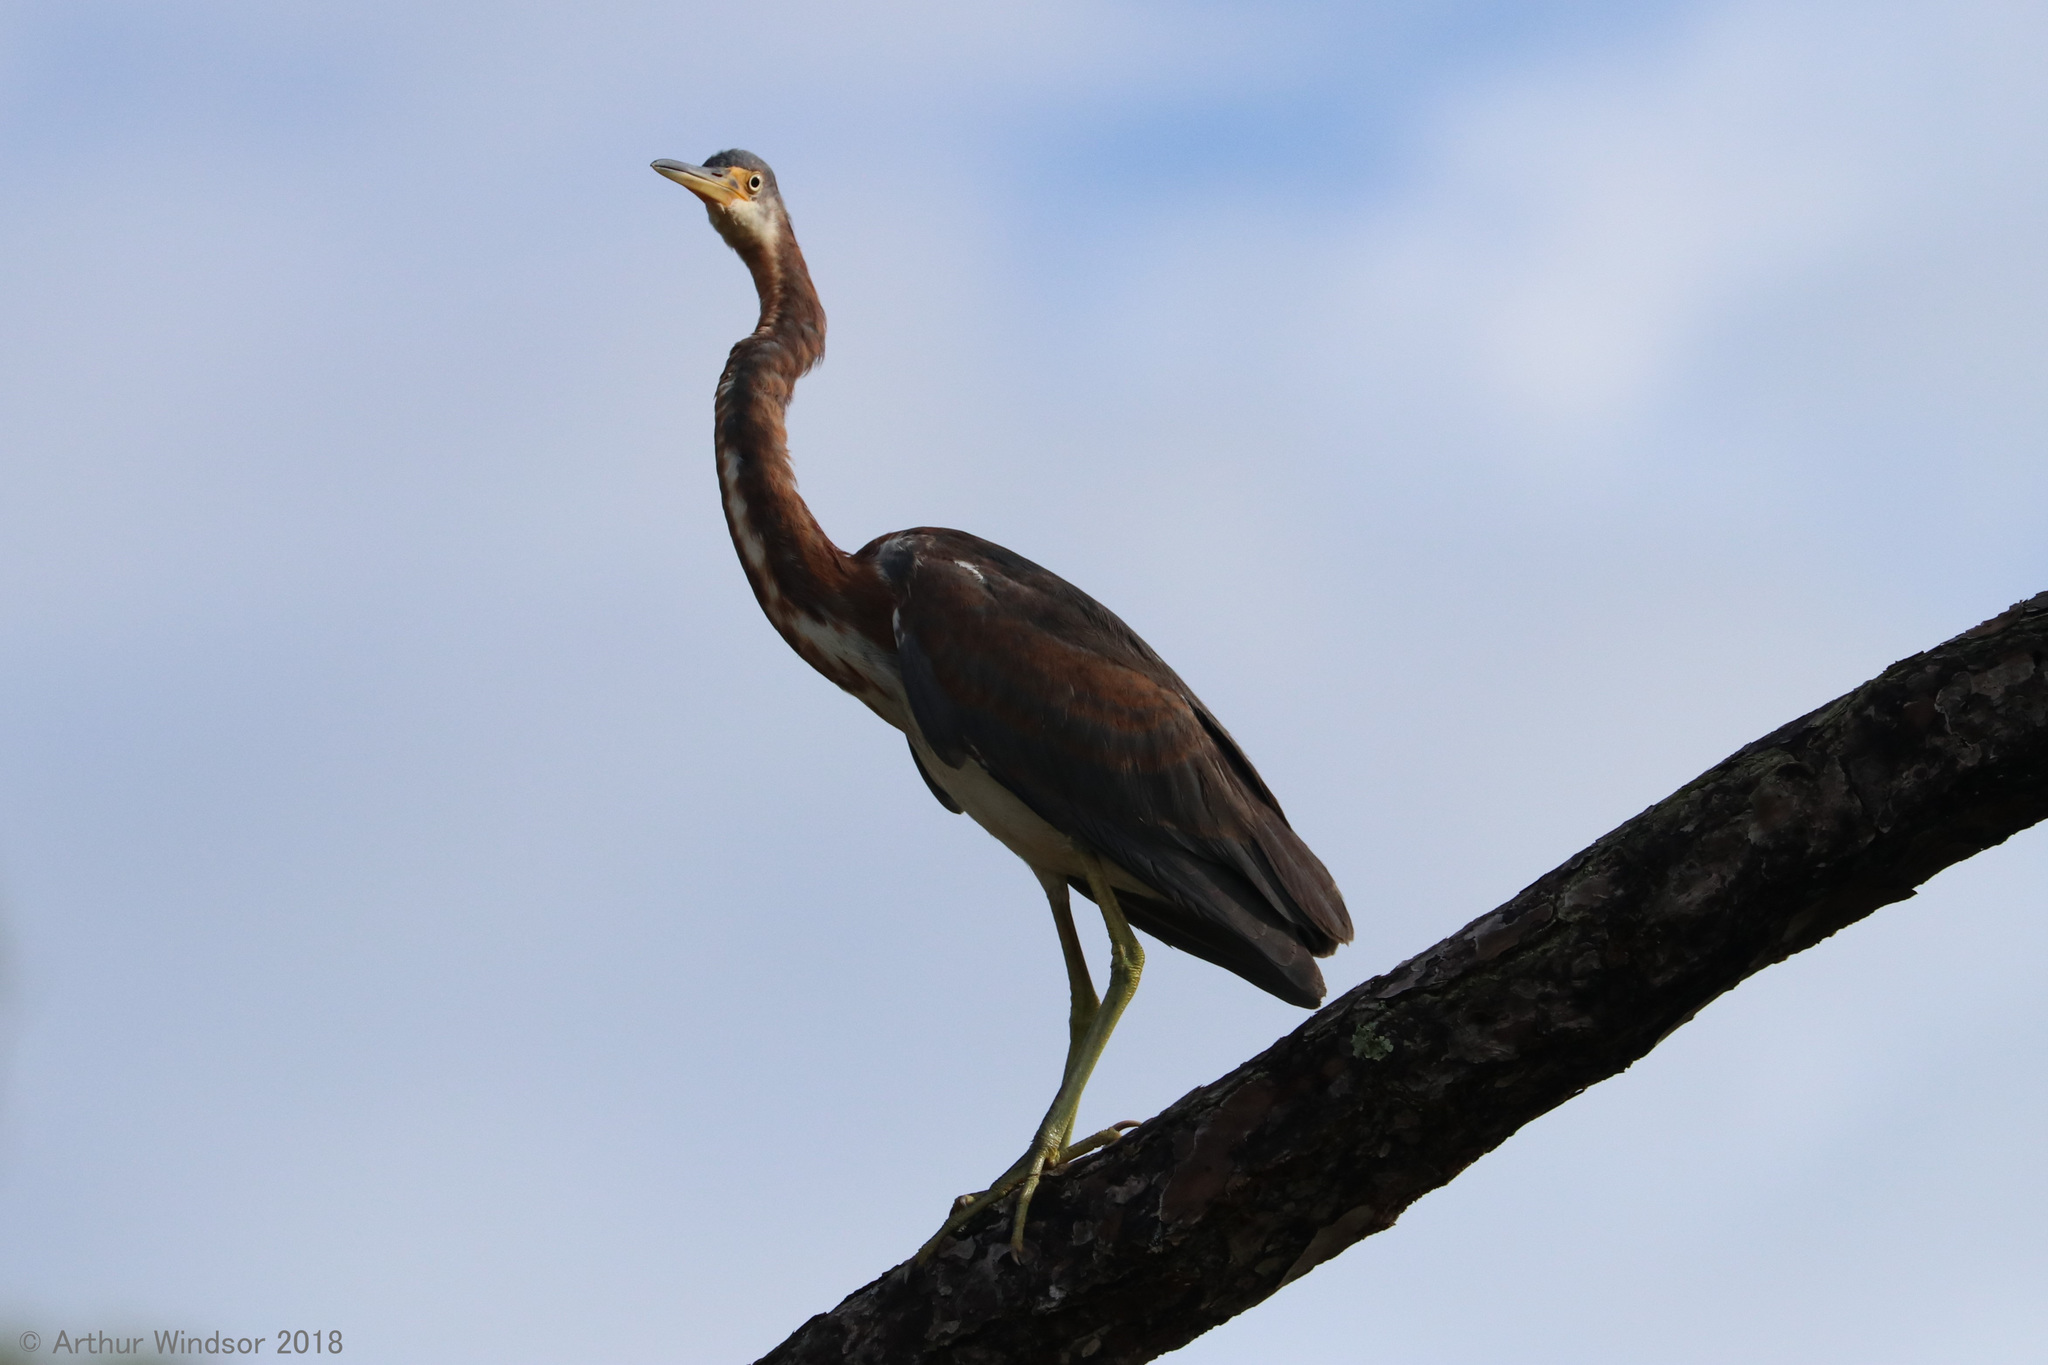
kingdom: Animalia
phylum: Chordata
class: Aves
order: Pelecaniformes
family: Ardeidae
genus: Egretta
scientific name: Egretta tricolor
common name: Tricolored heron
